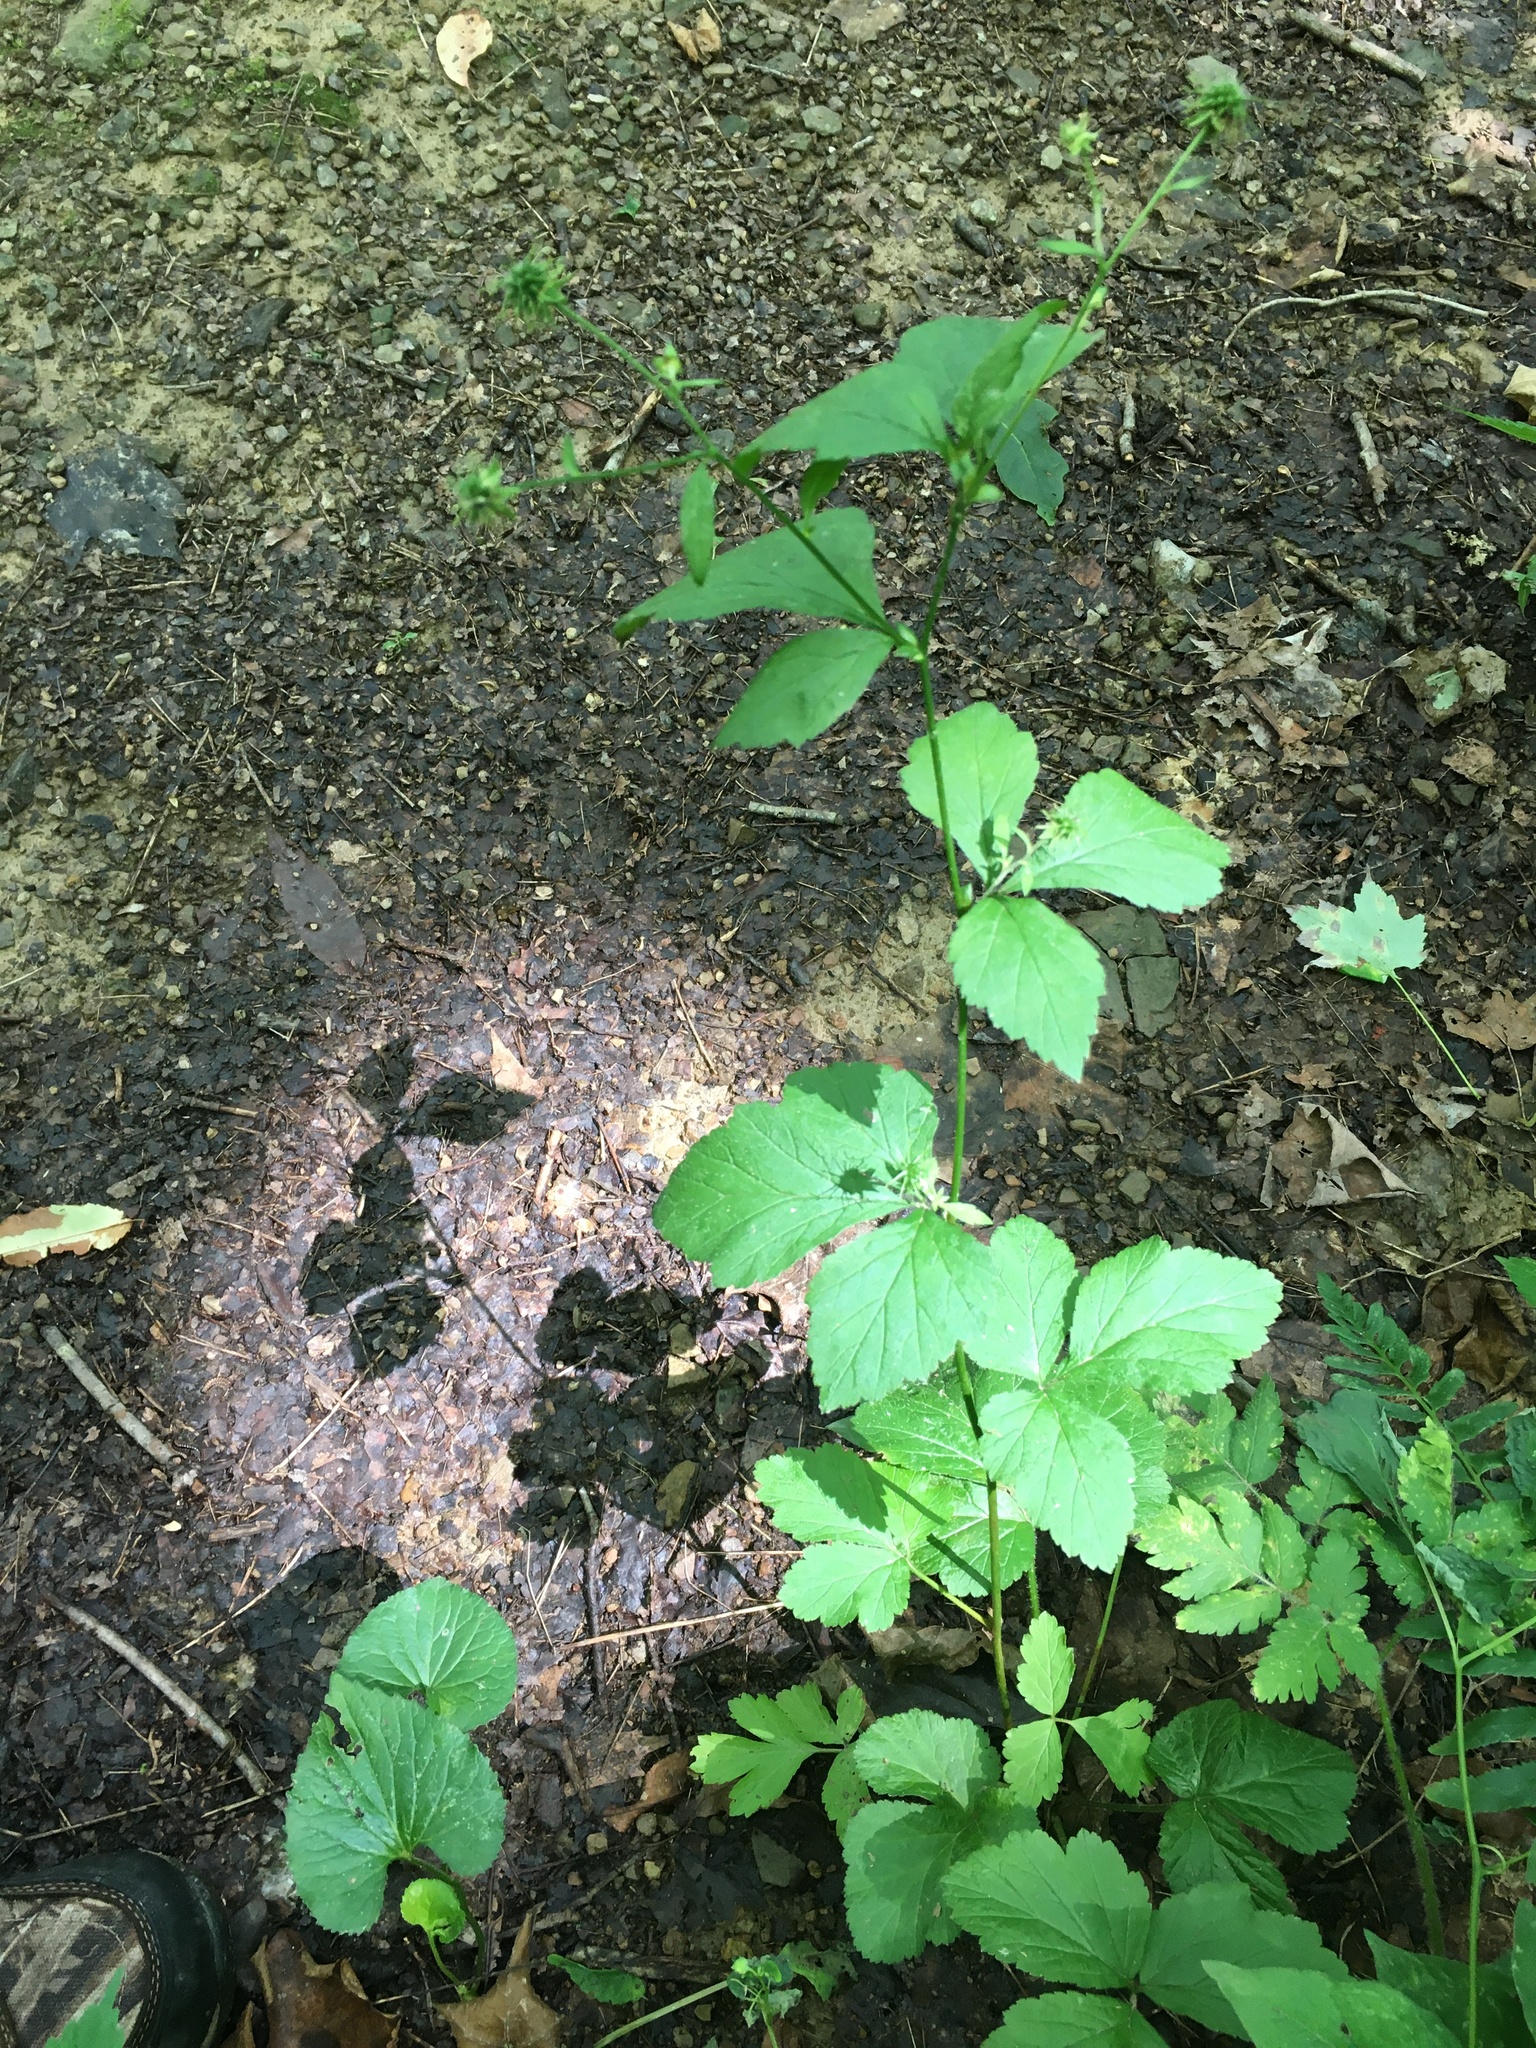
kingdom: Plantae
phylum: Tracheophyta
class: Magnoliopsida
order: Rosales
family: Rosaceae
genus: Geum
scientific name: Geum canadense
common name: White avens
